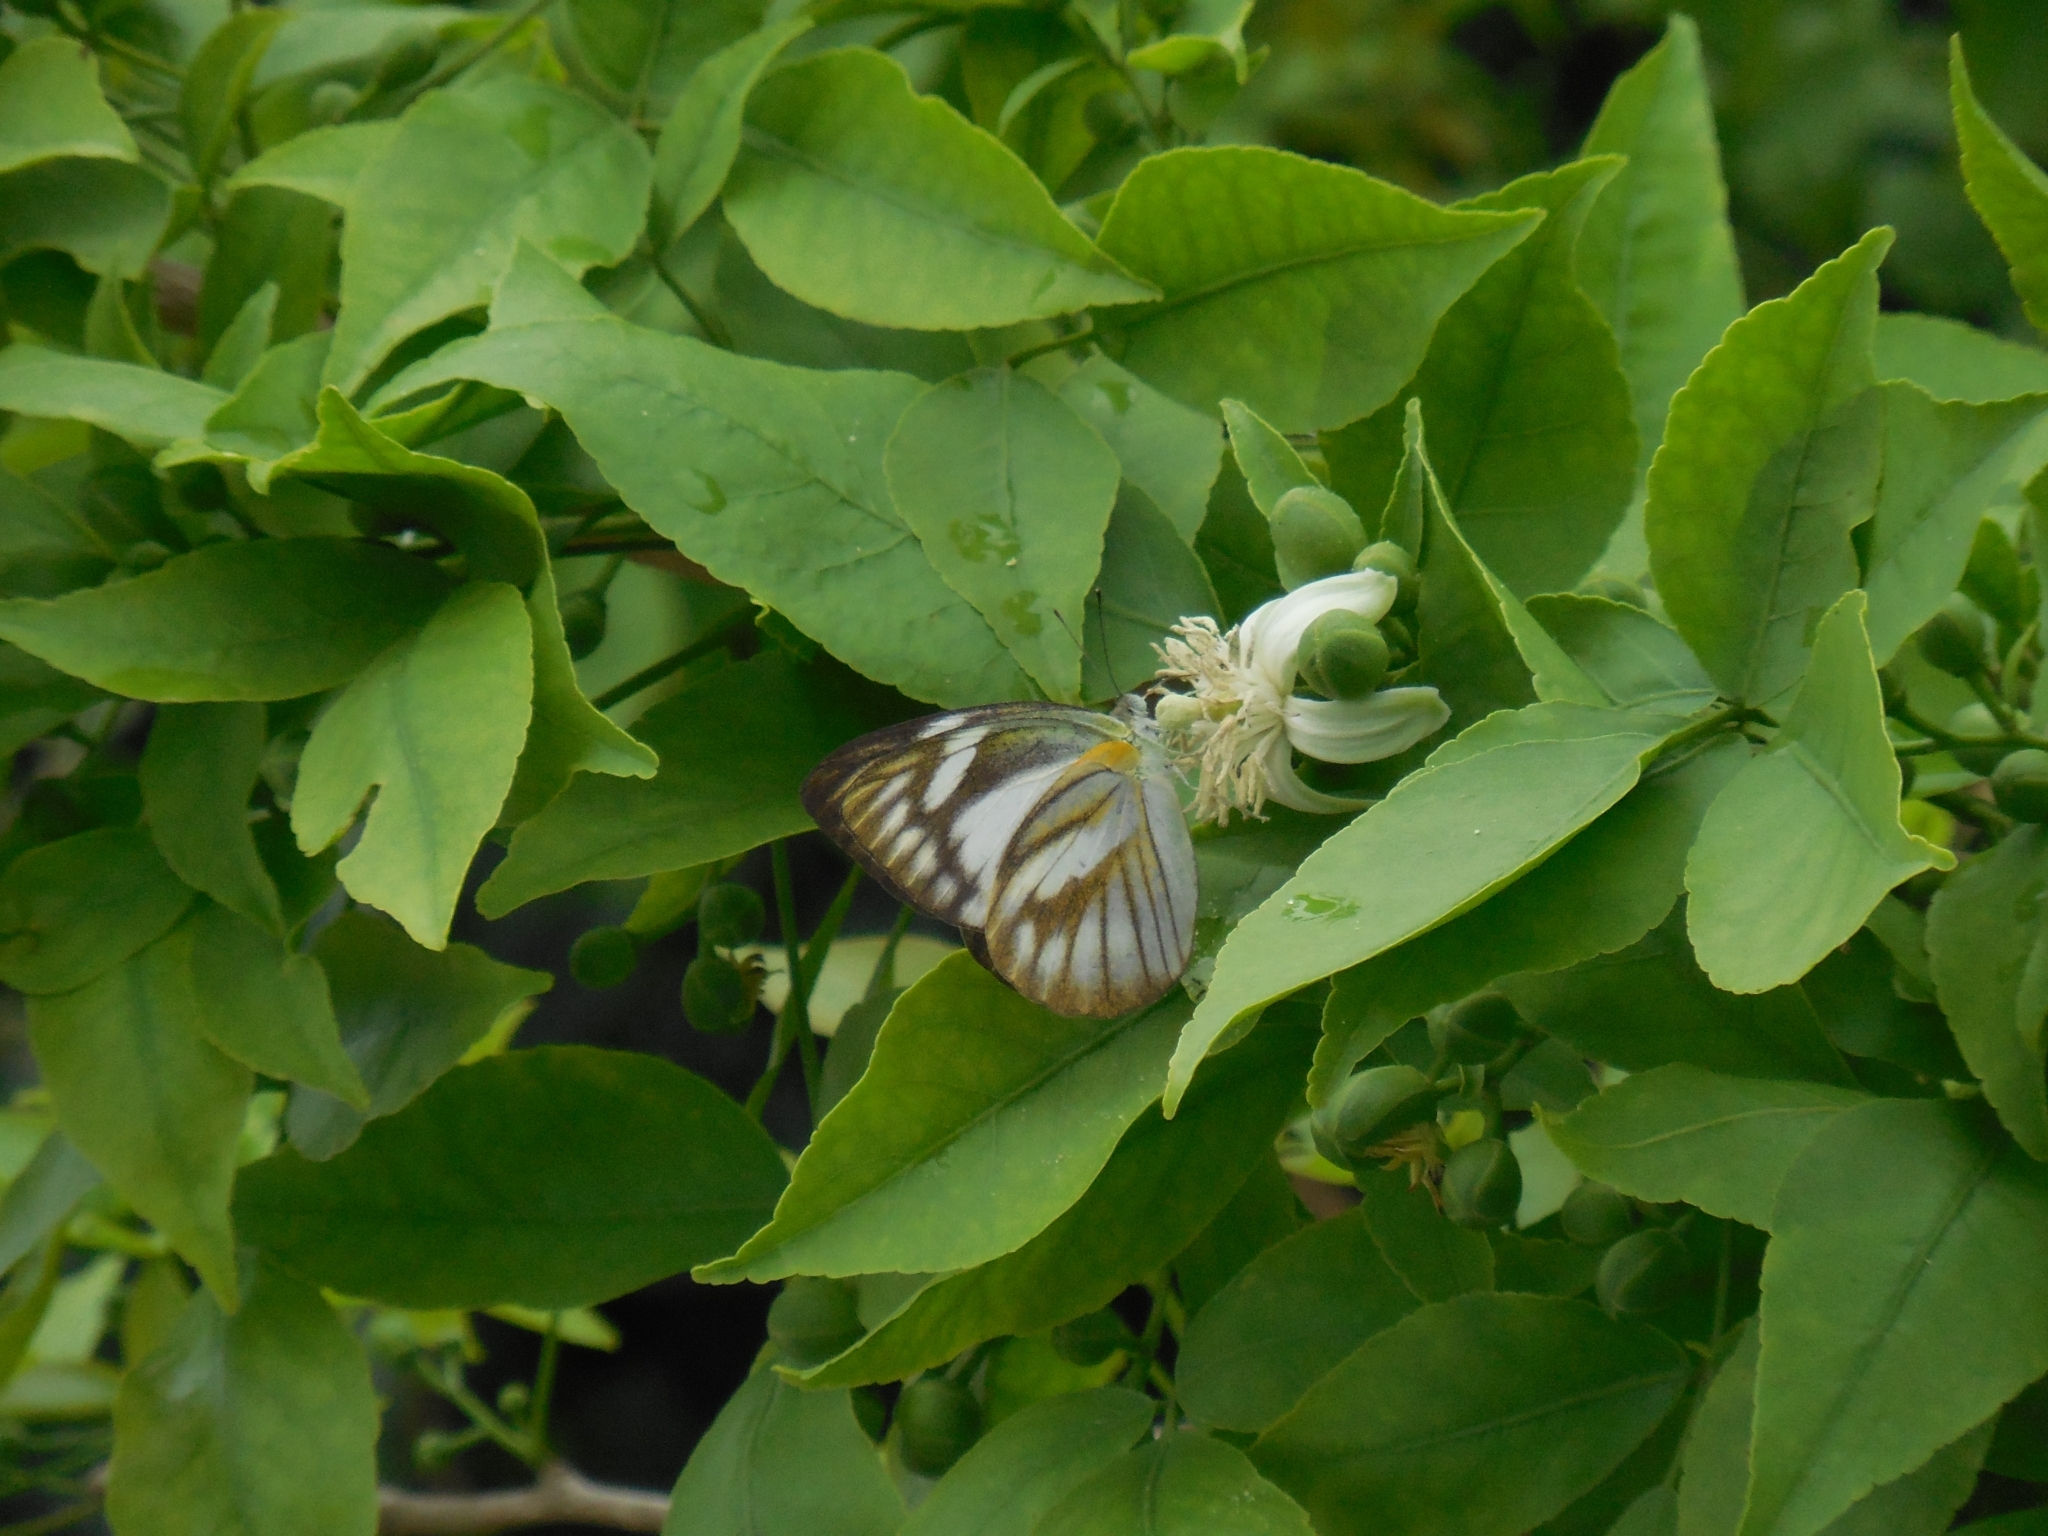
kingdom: Animalia
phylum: Arthropoda
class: Insecta
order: Lepidoptera
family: Pieridae
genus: Cepora
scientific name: Cepora nerissa
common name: Common gull
